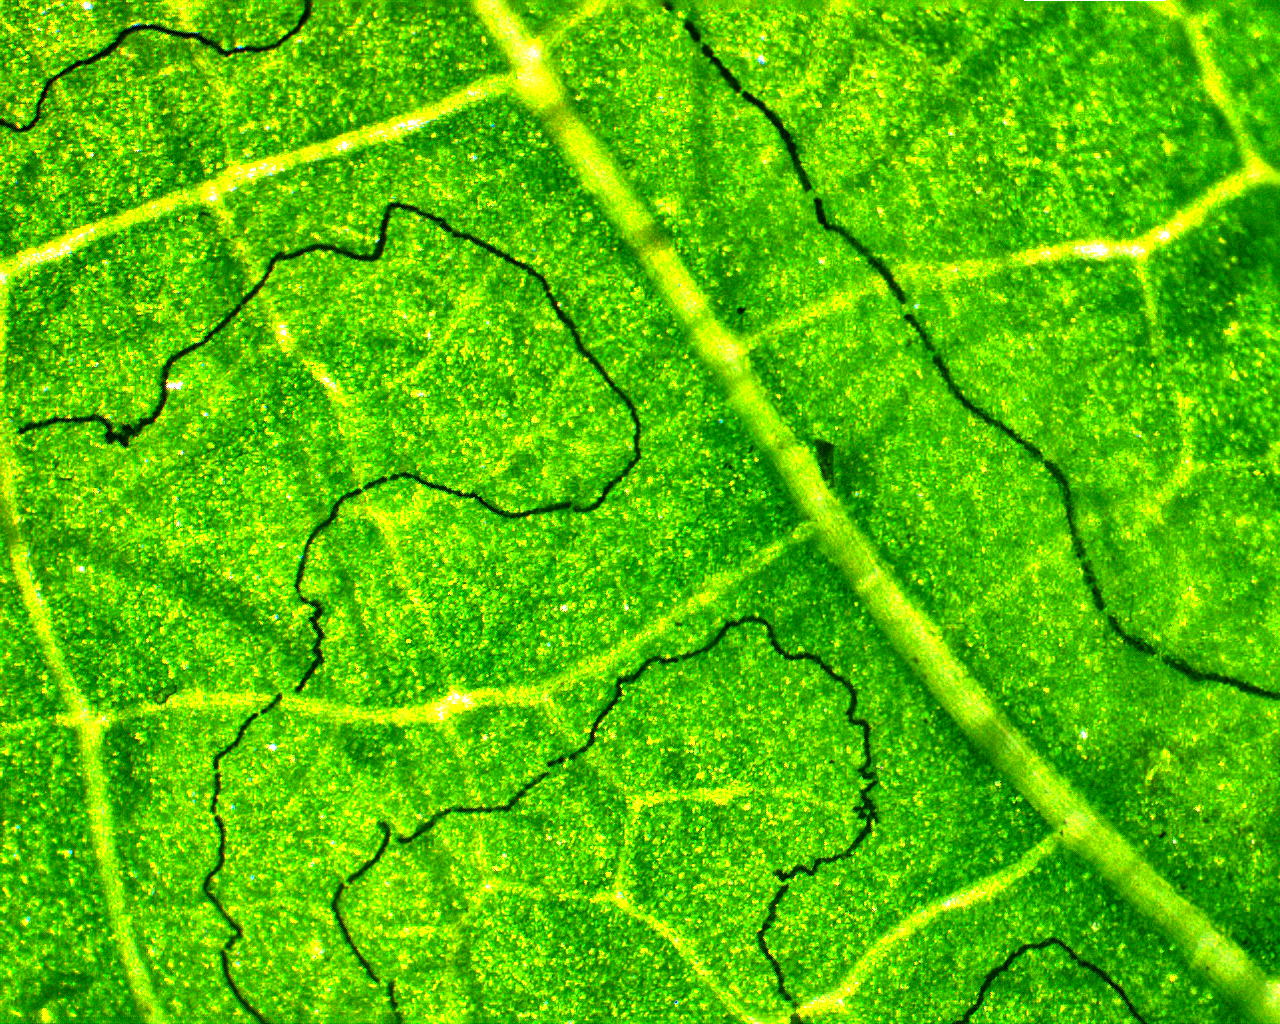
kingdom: Animalia
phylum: Arthropoda
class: Insecta
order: Lepidoptera
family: Gracillariidae
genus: Phyllocnistis
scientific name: Phyllocnistis ampelopsiella
